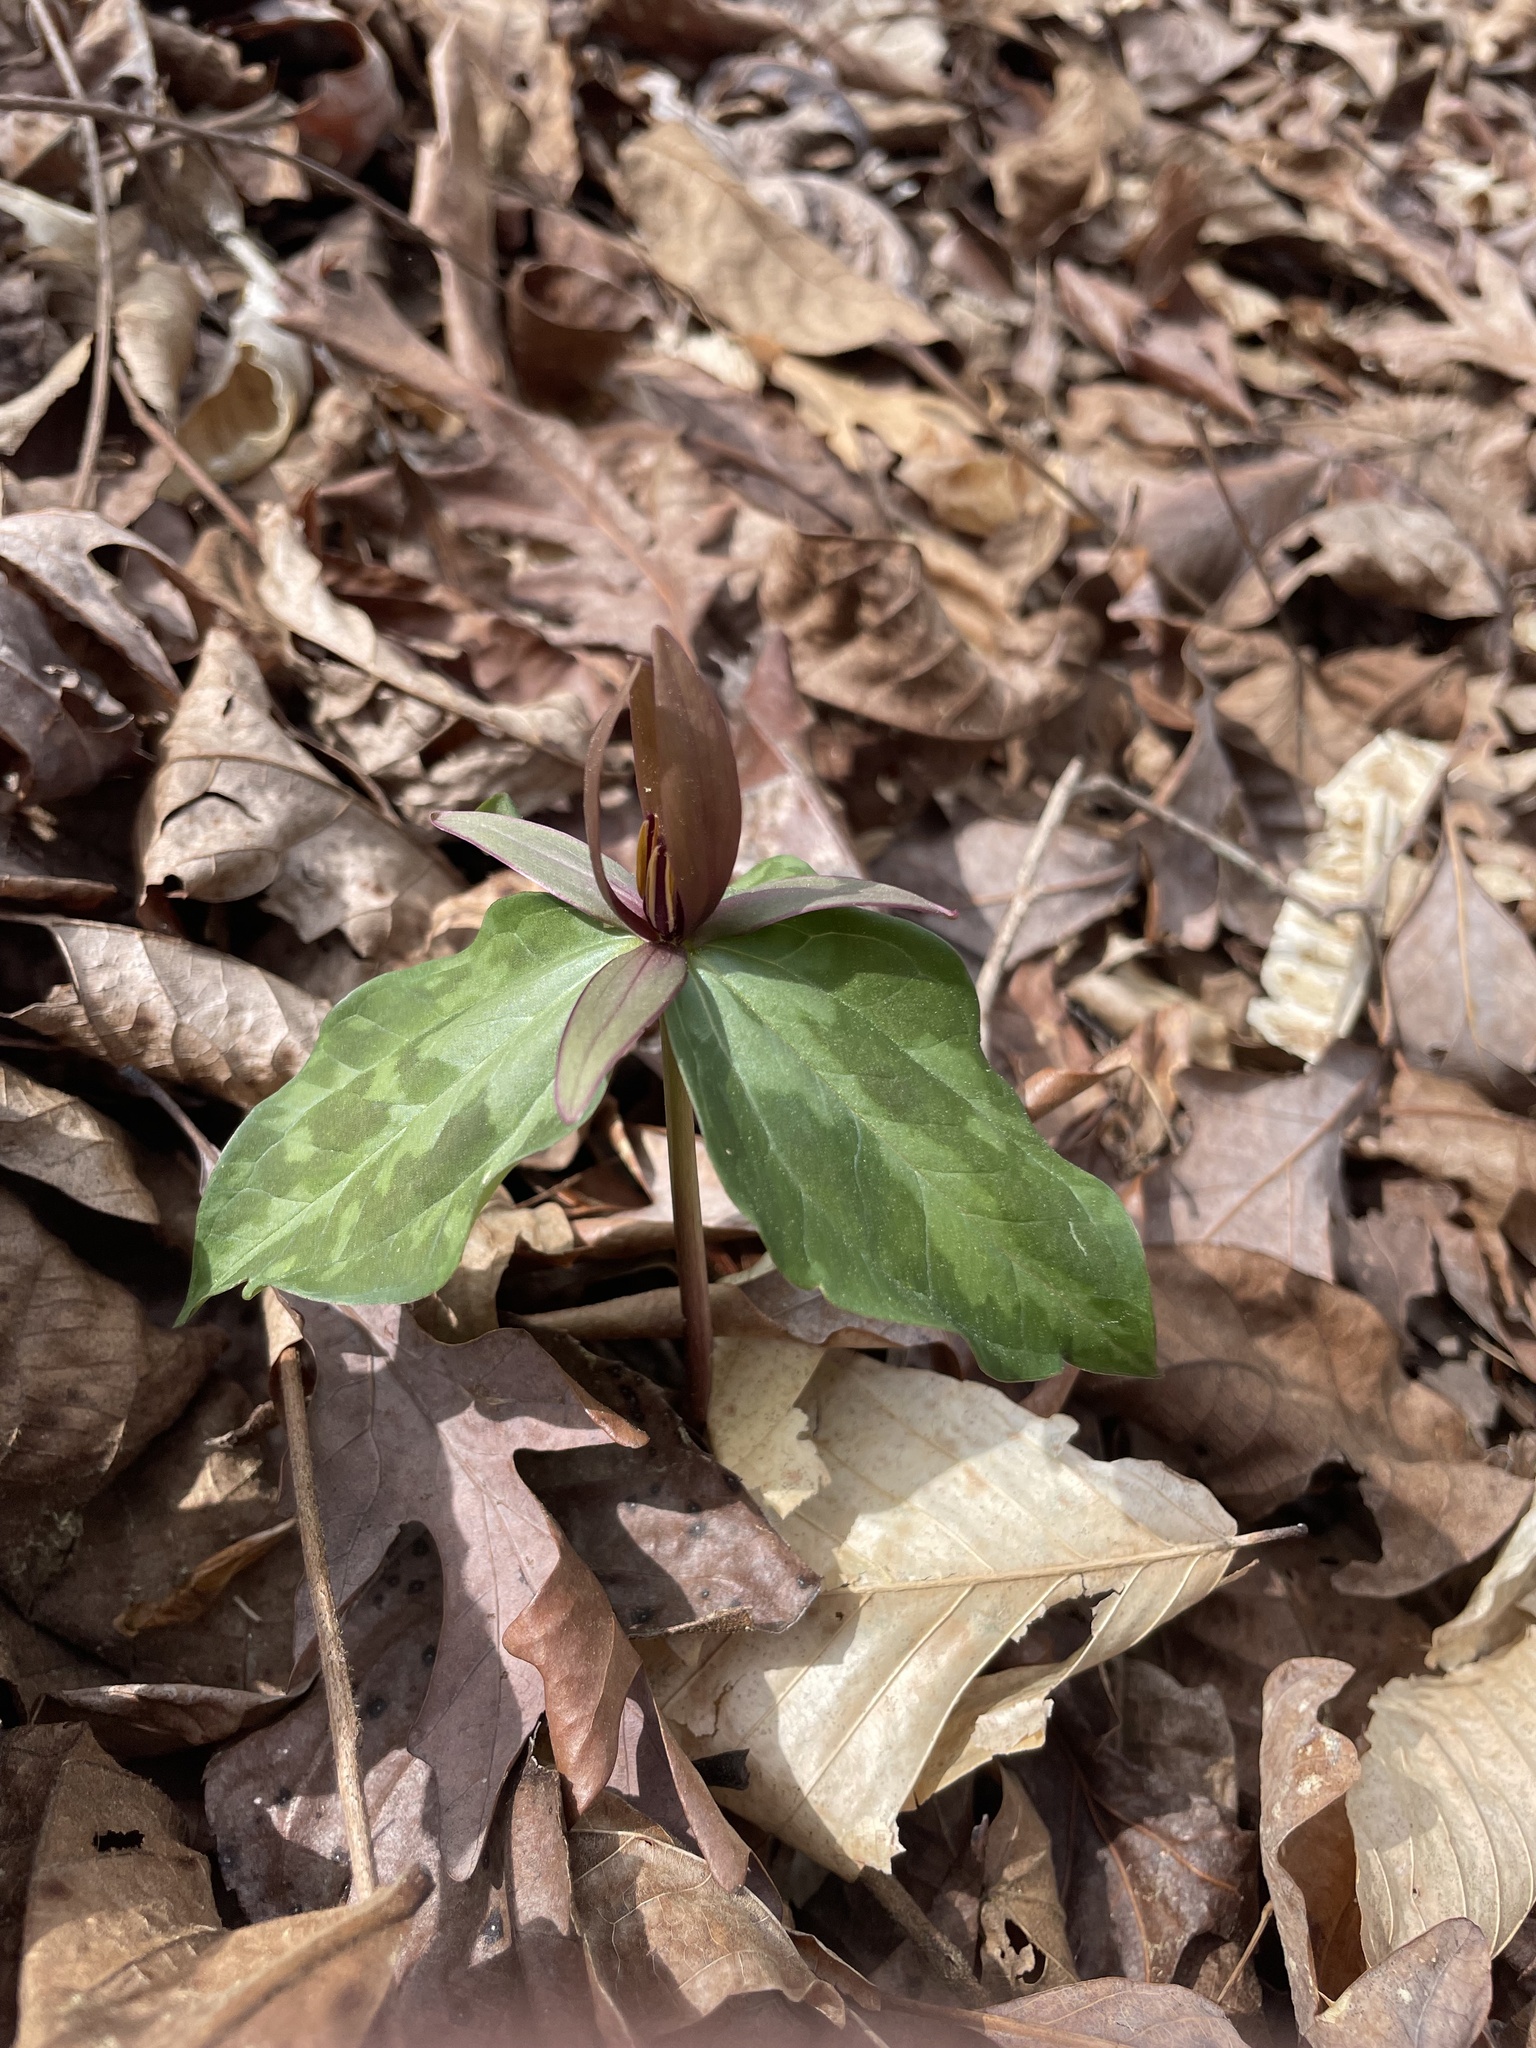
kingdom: Plantae
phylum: Tracheophyta
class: Liliopsida
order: Liliales
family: Melanthiaceae
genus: Trillium
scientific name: Trillium cuneatum
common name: Cuneate trillium
